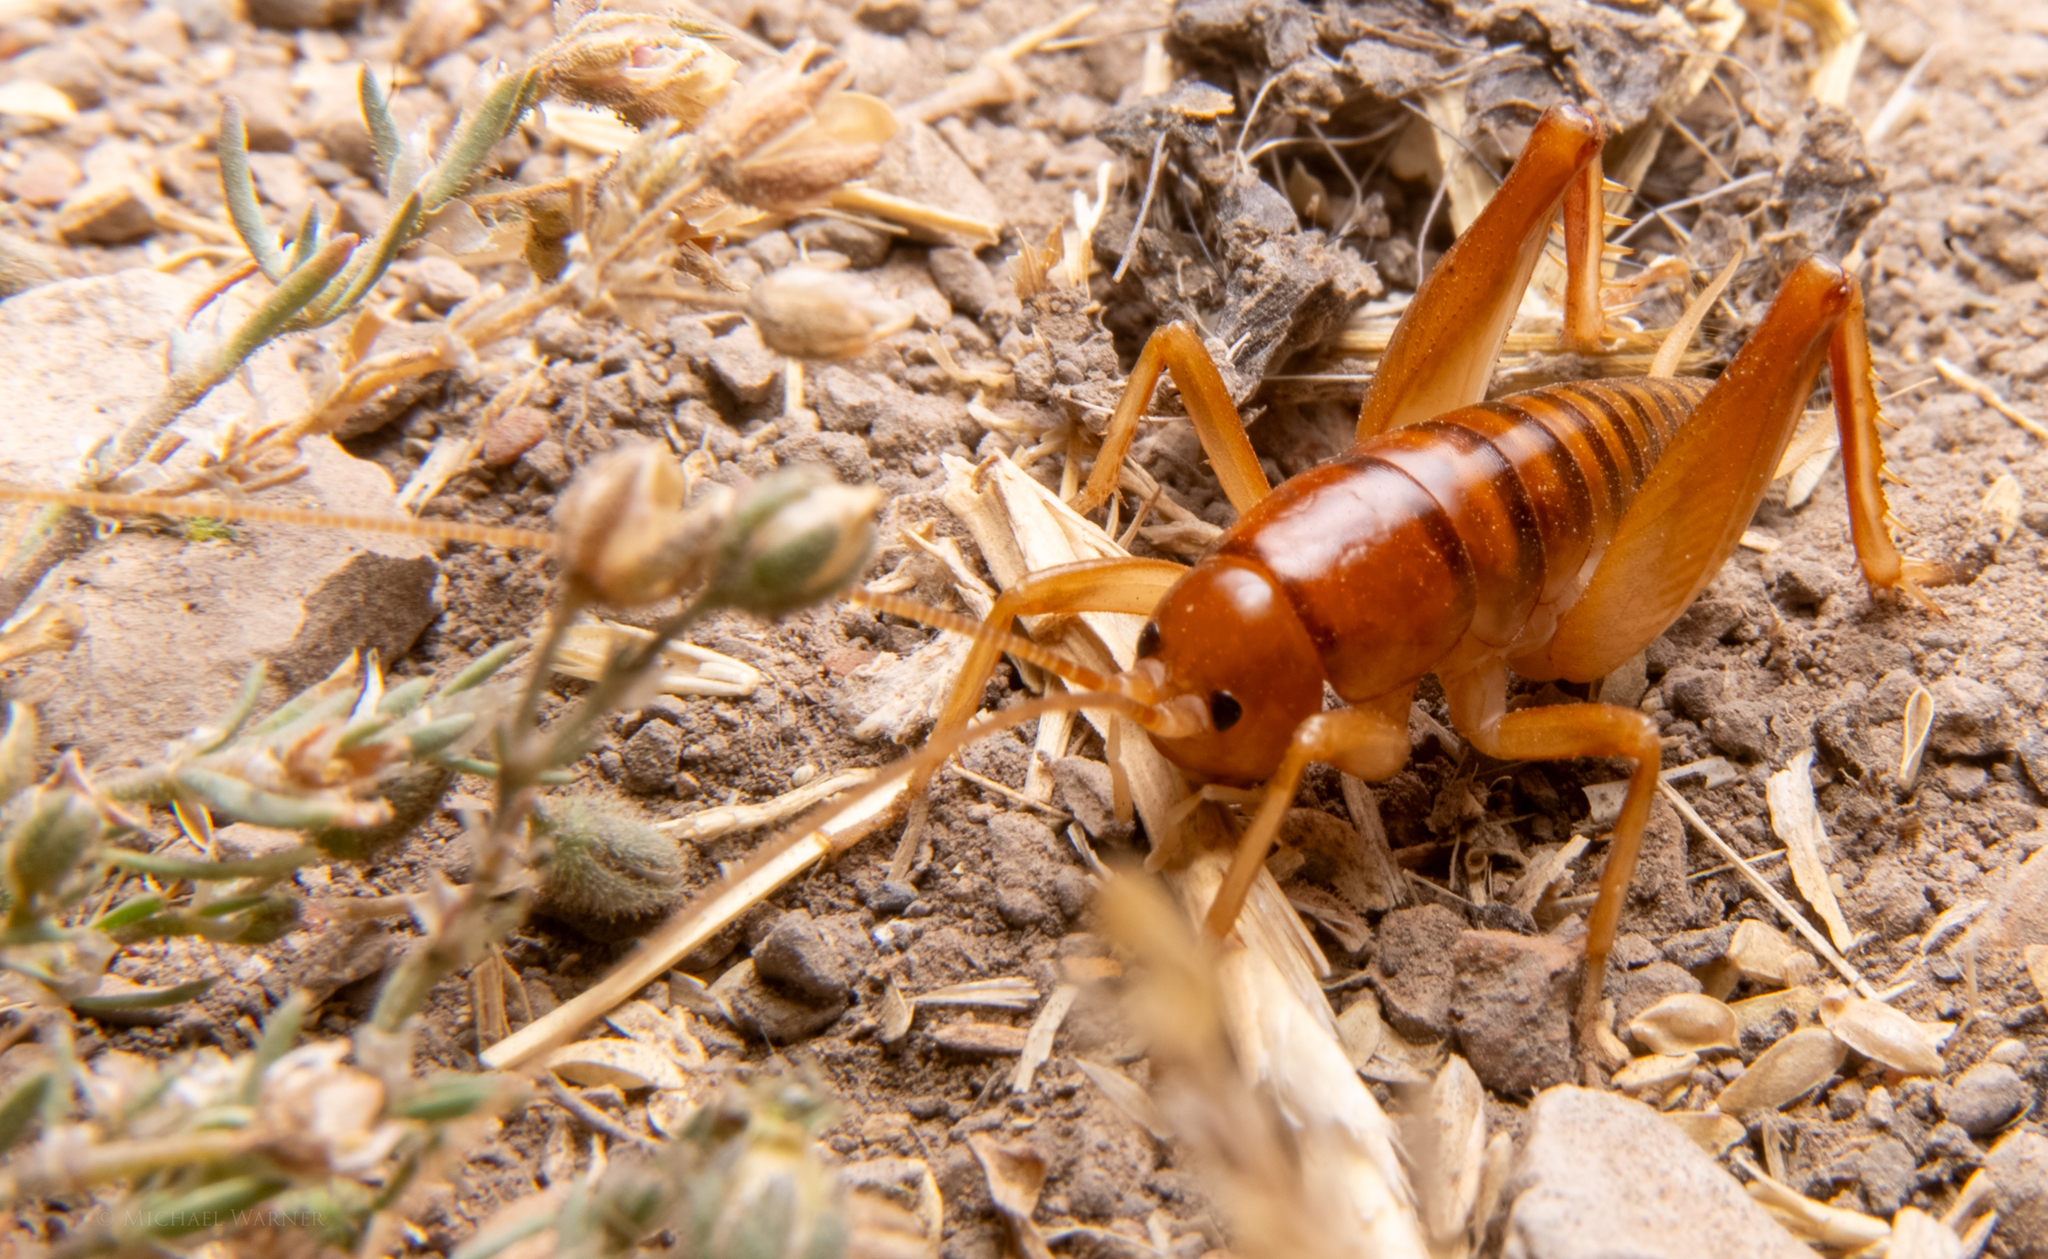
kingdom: Animalia
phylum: Arthropoda
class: Insecta
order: Orthoptera
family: Rhaphidophoridae
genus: Ceuthophilus
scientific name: Ceuthophilus californianus
